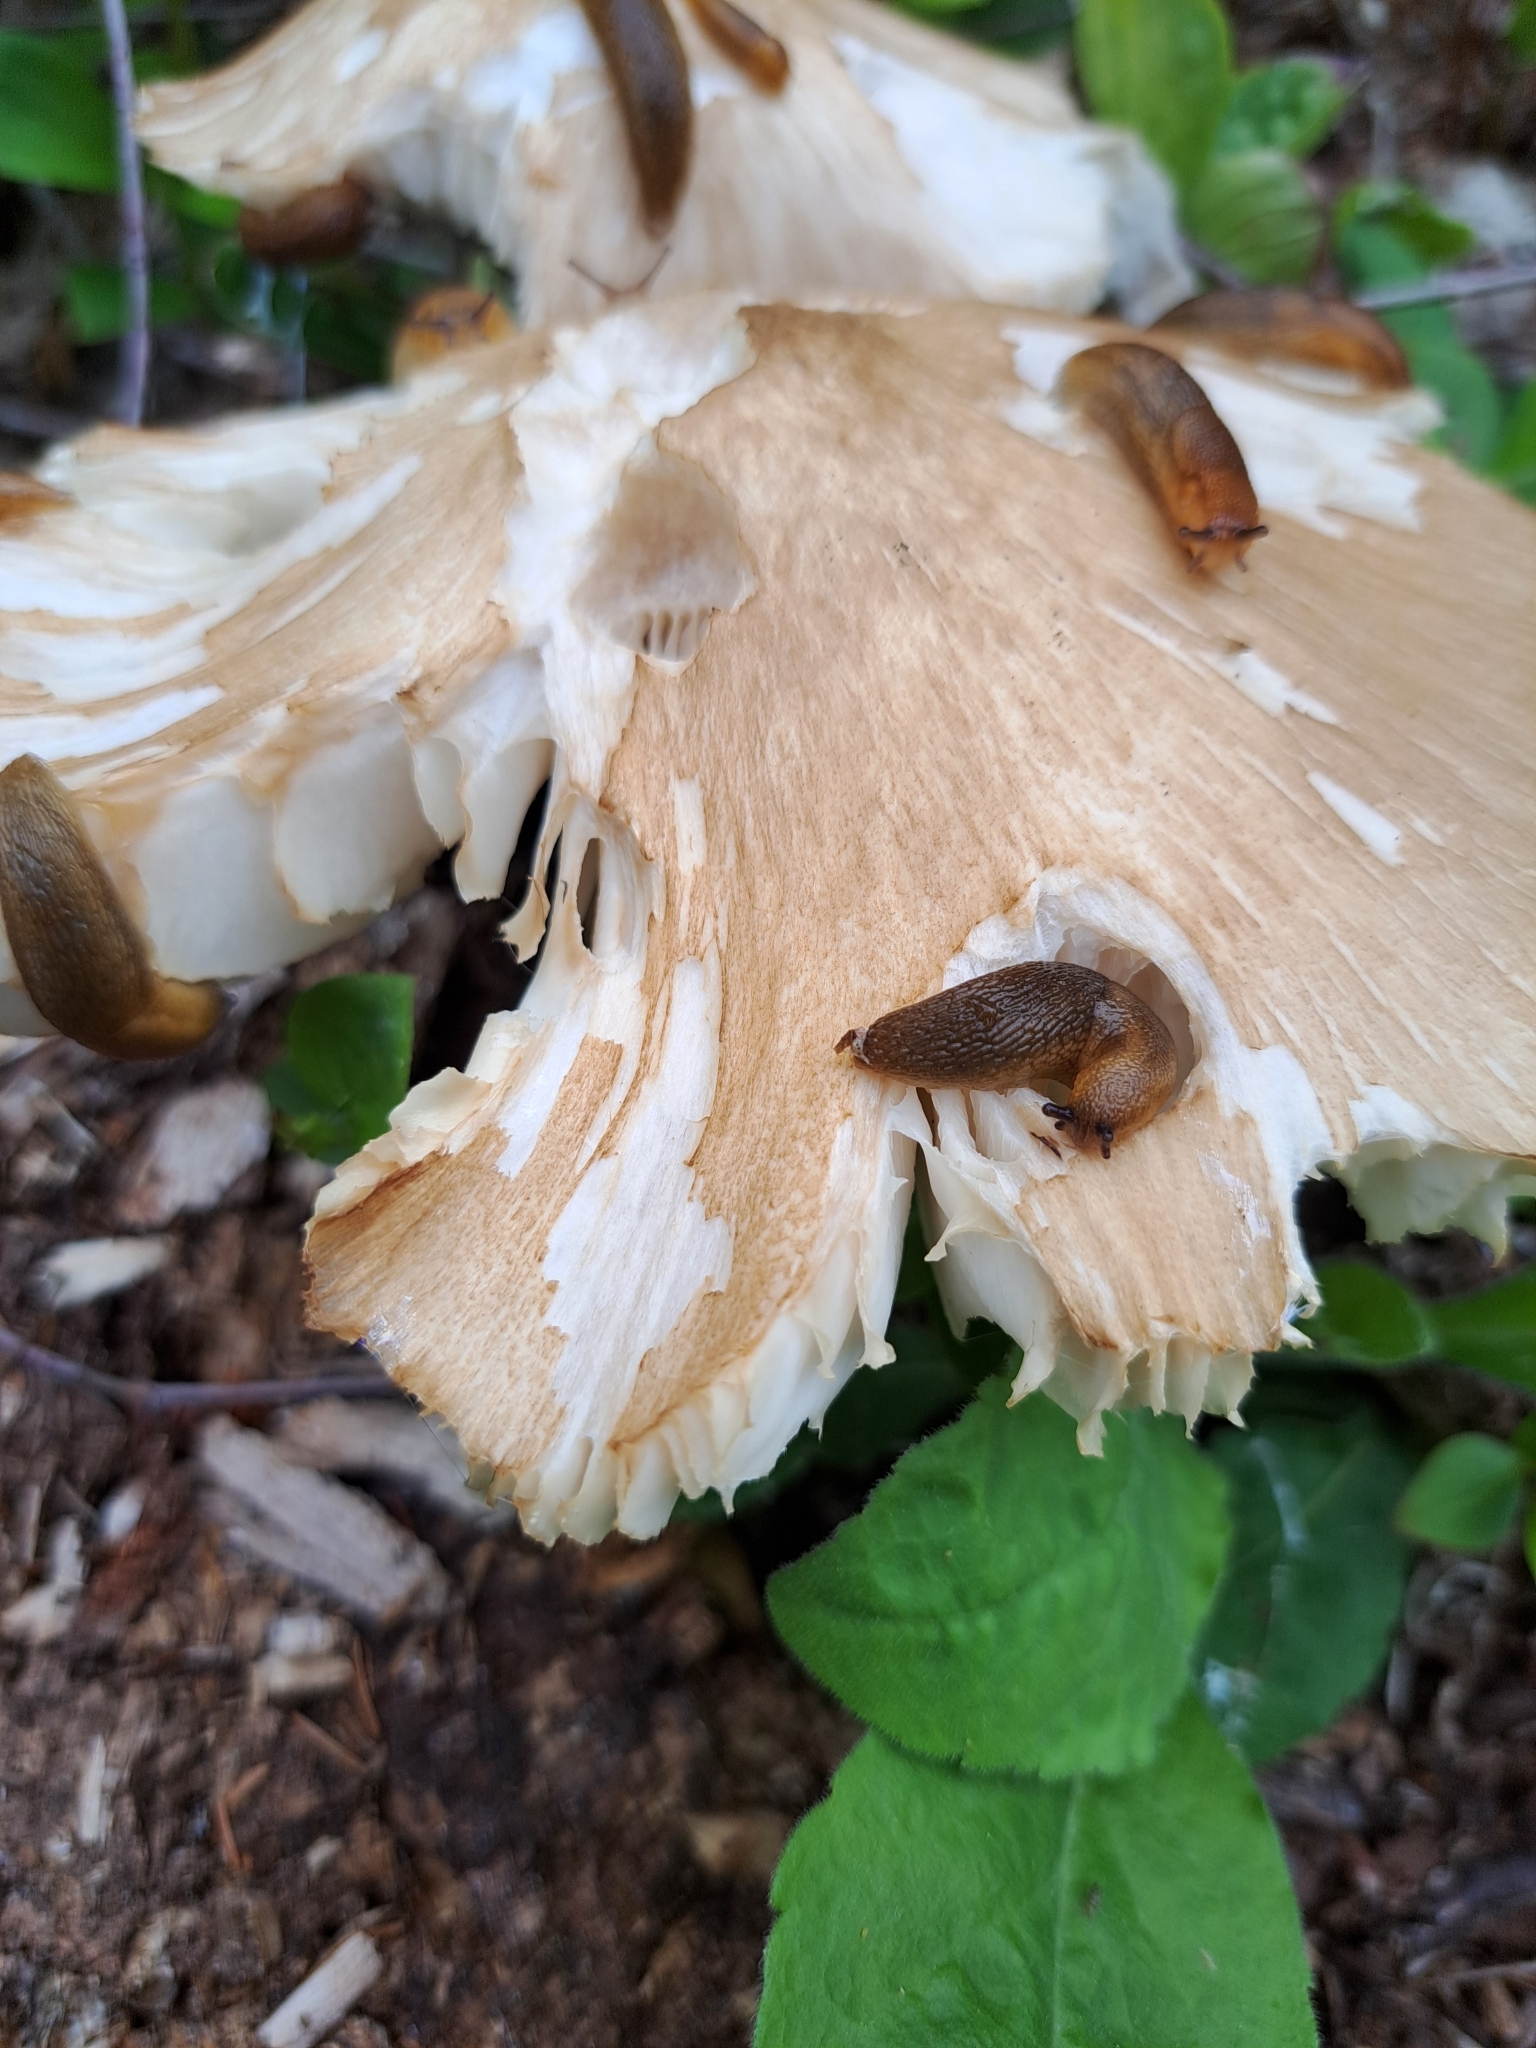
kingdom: Fungi
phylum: Basidiomycota
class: Agaricomycetes
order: Agaricales
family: Tricholomataceae
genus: Megacollybia
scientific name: Megacollybia rodmanii
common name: Eastern american platterful mushroom
